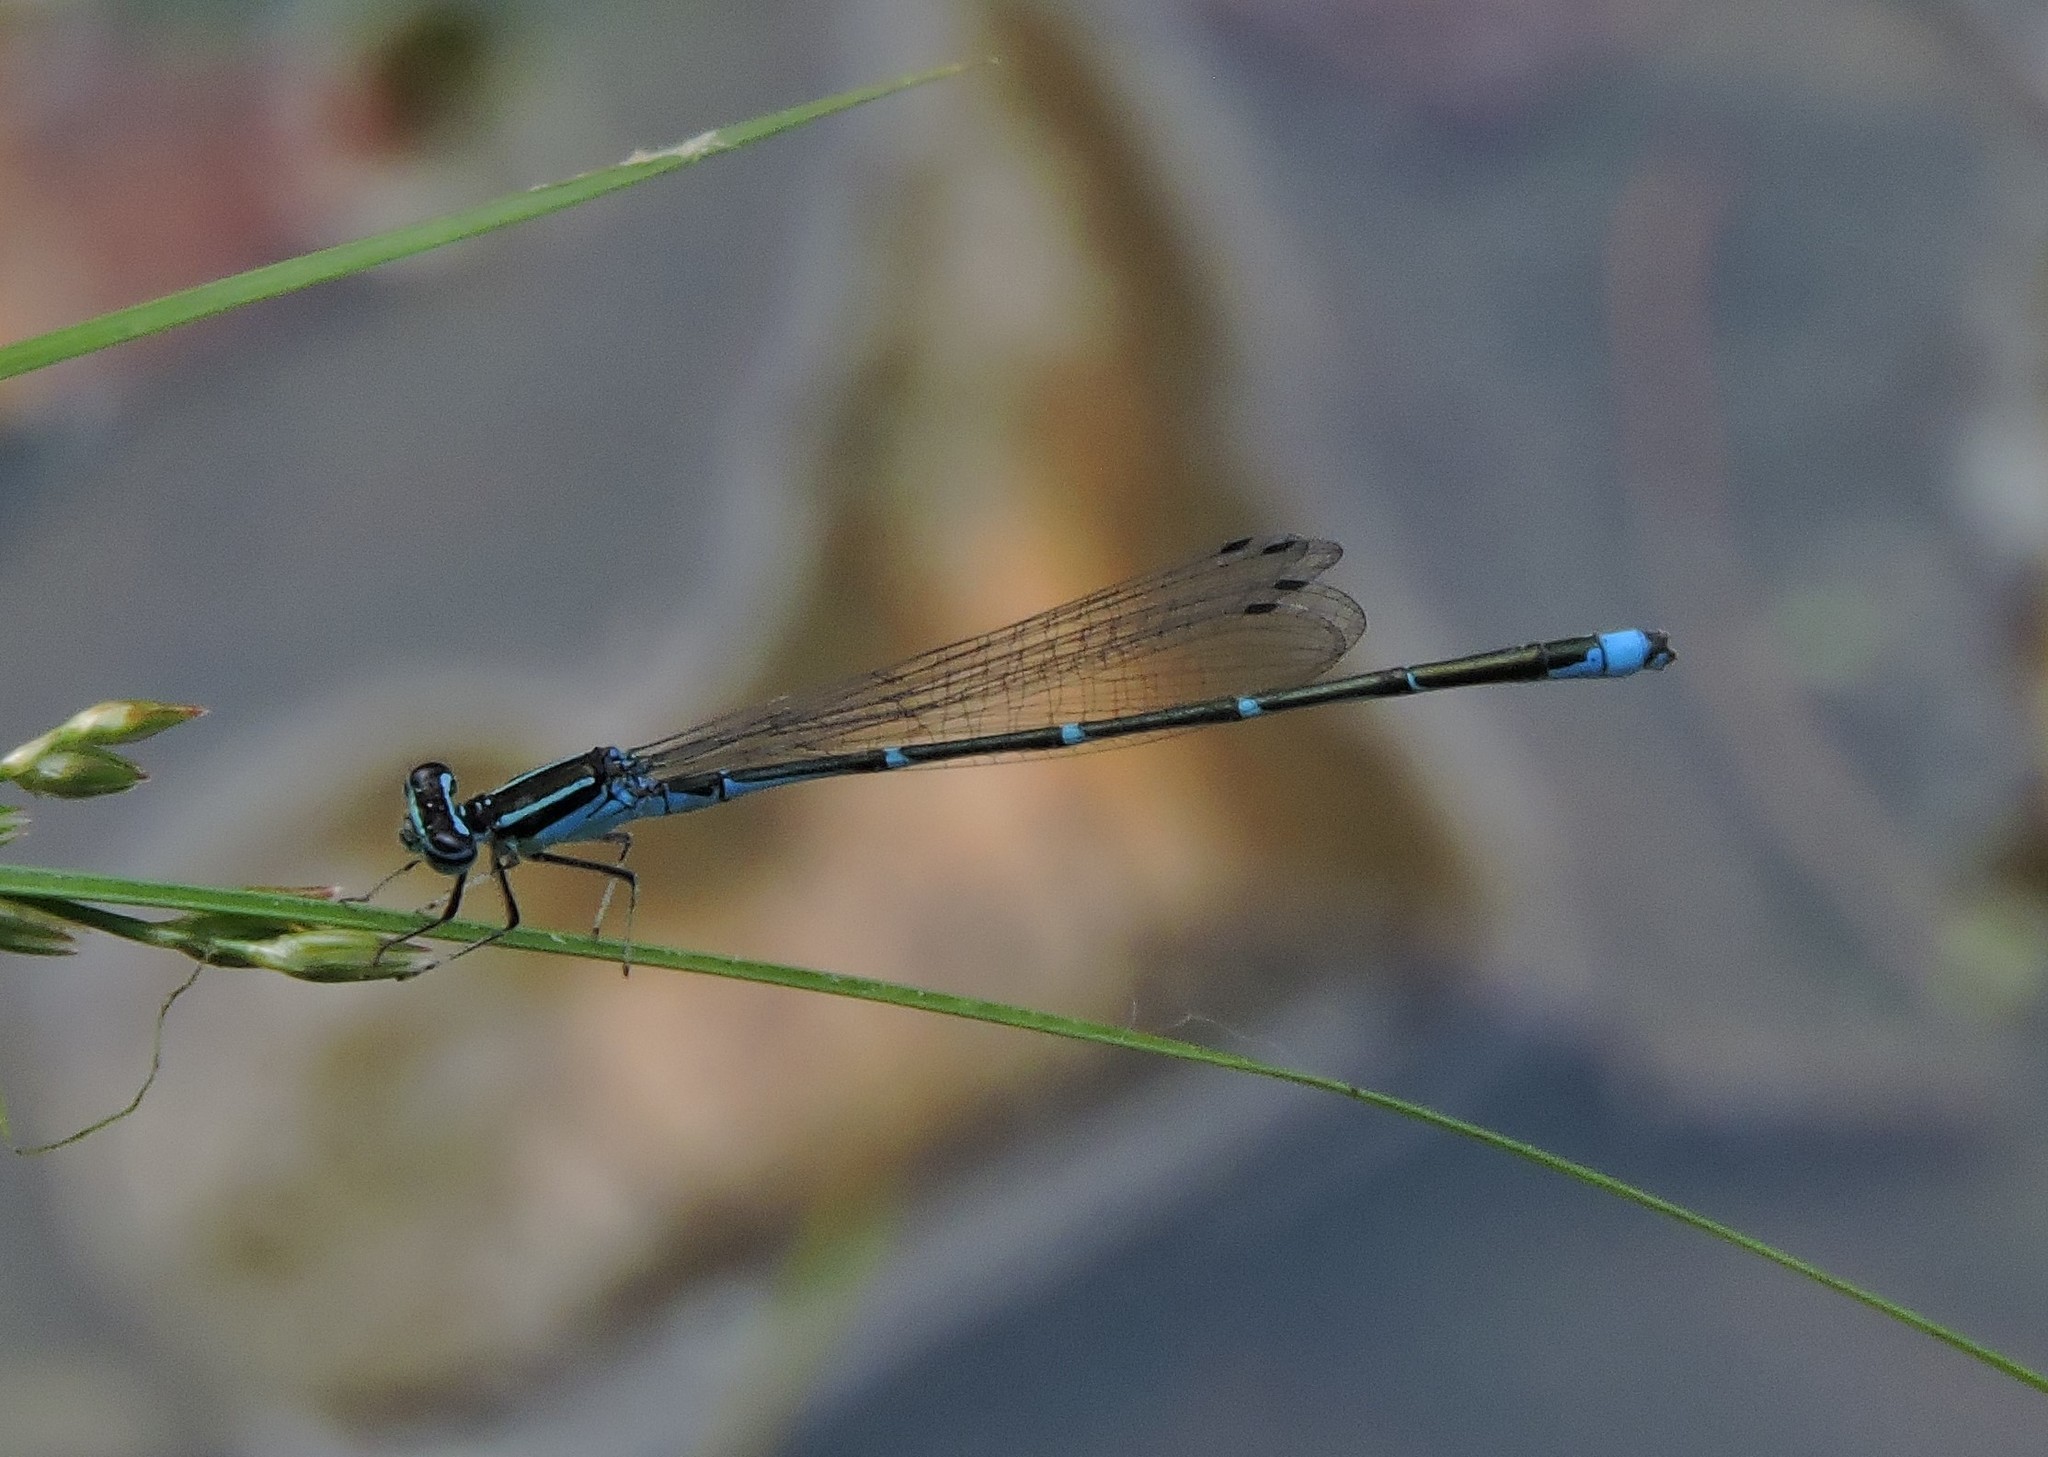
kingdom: Animalia
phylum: Arthropoda
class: Insecta
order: Odonata
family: Coenagrionidae
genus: Enallagma
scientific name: Enallagma exsulans
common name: Stream bluet
